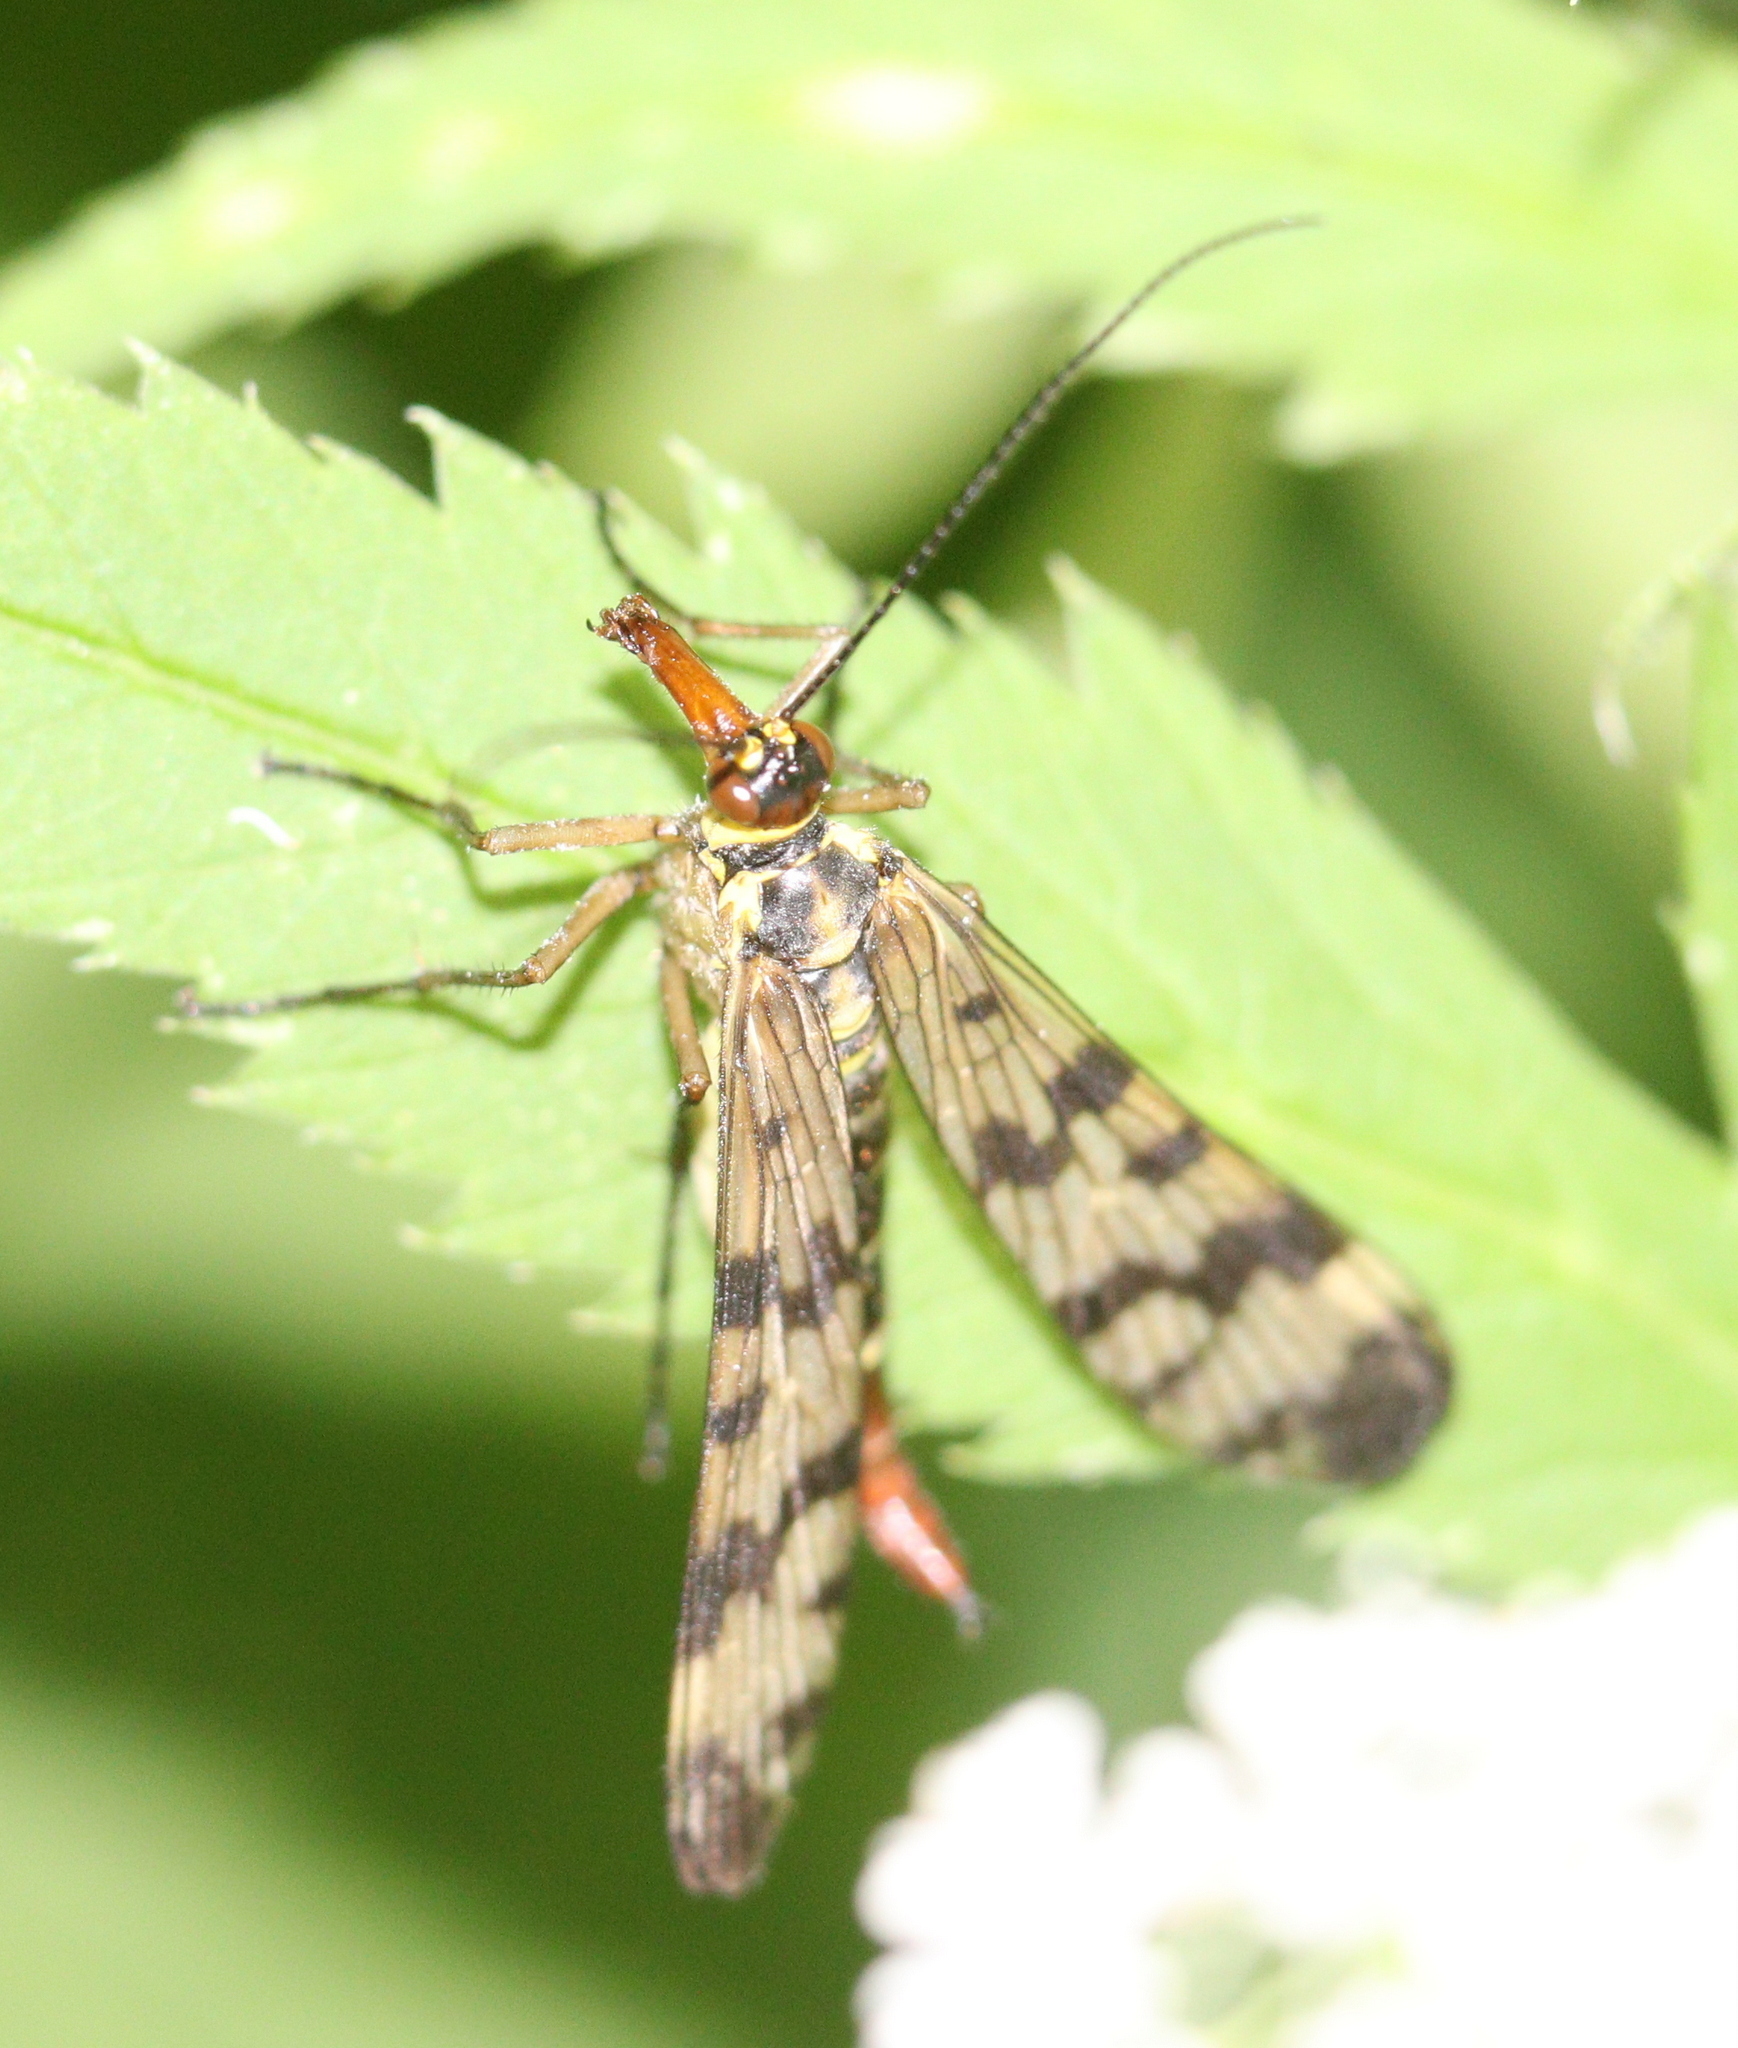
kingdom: Animalia
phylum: Arthropoda
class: Insecta
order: Mecoptera
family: Panorpidae
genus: Panorpa
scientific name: Panorpa communis
